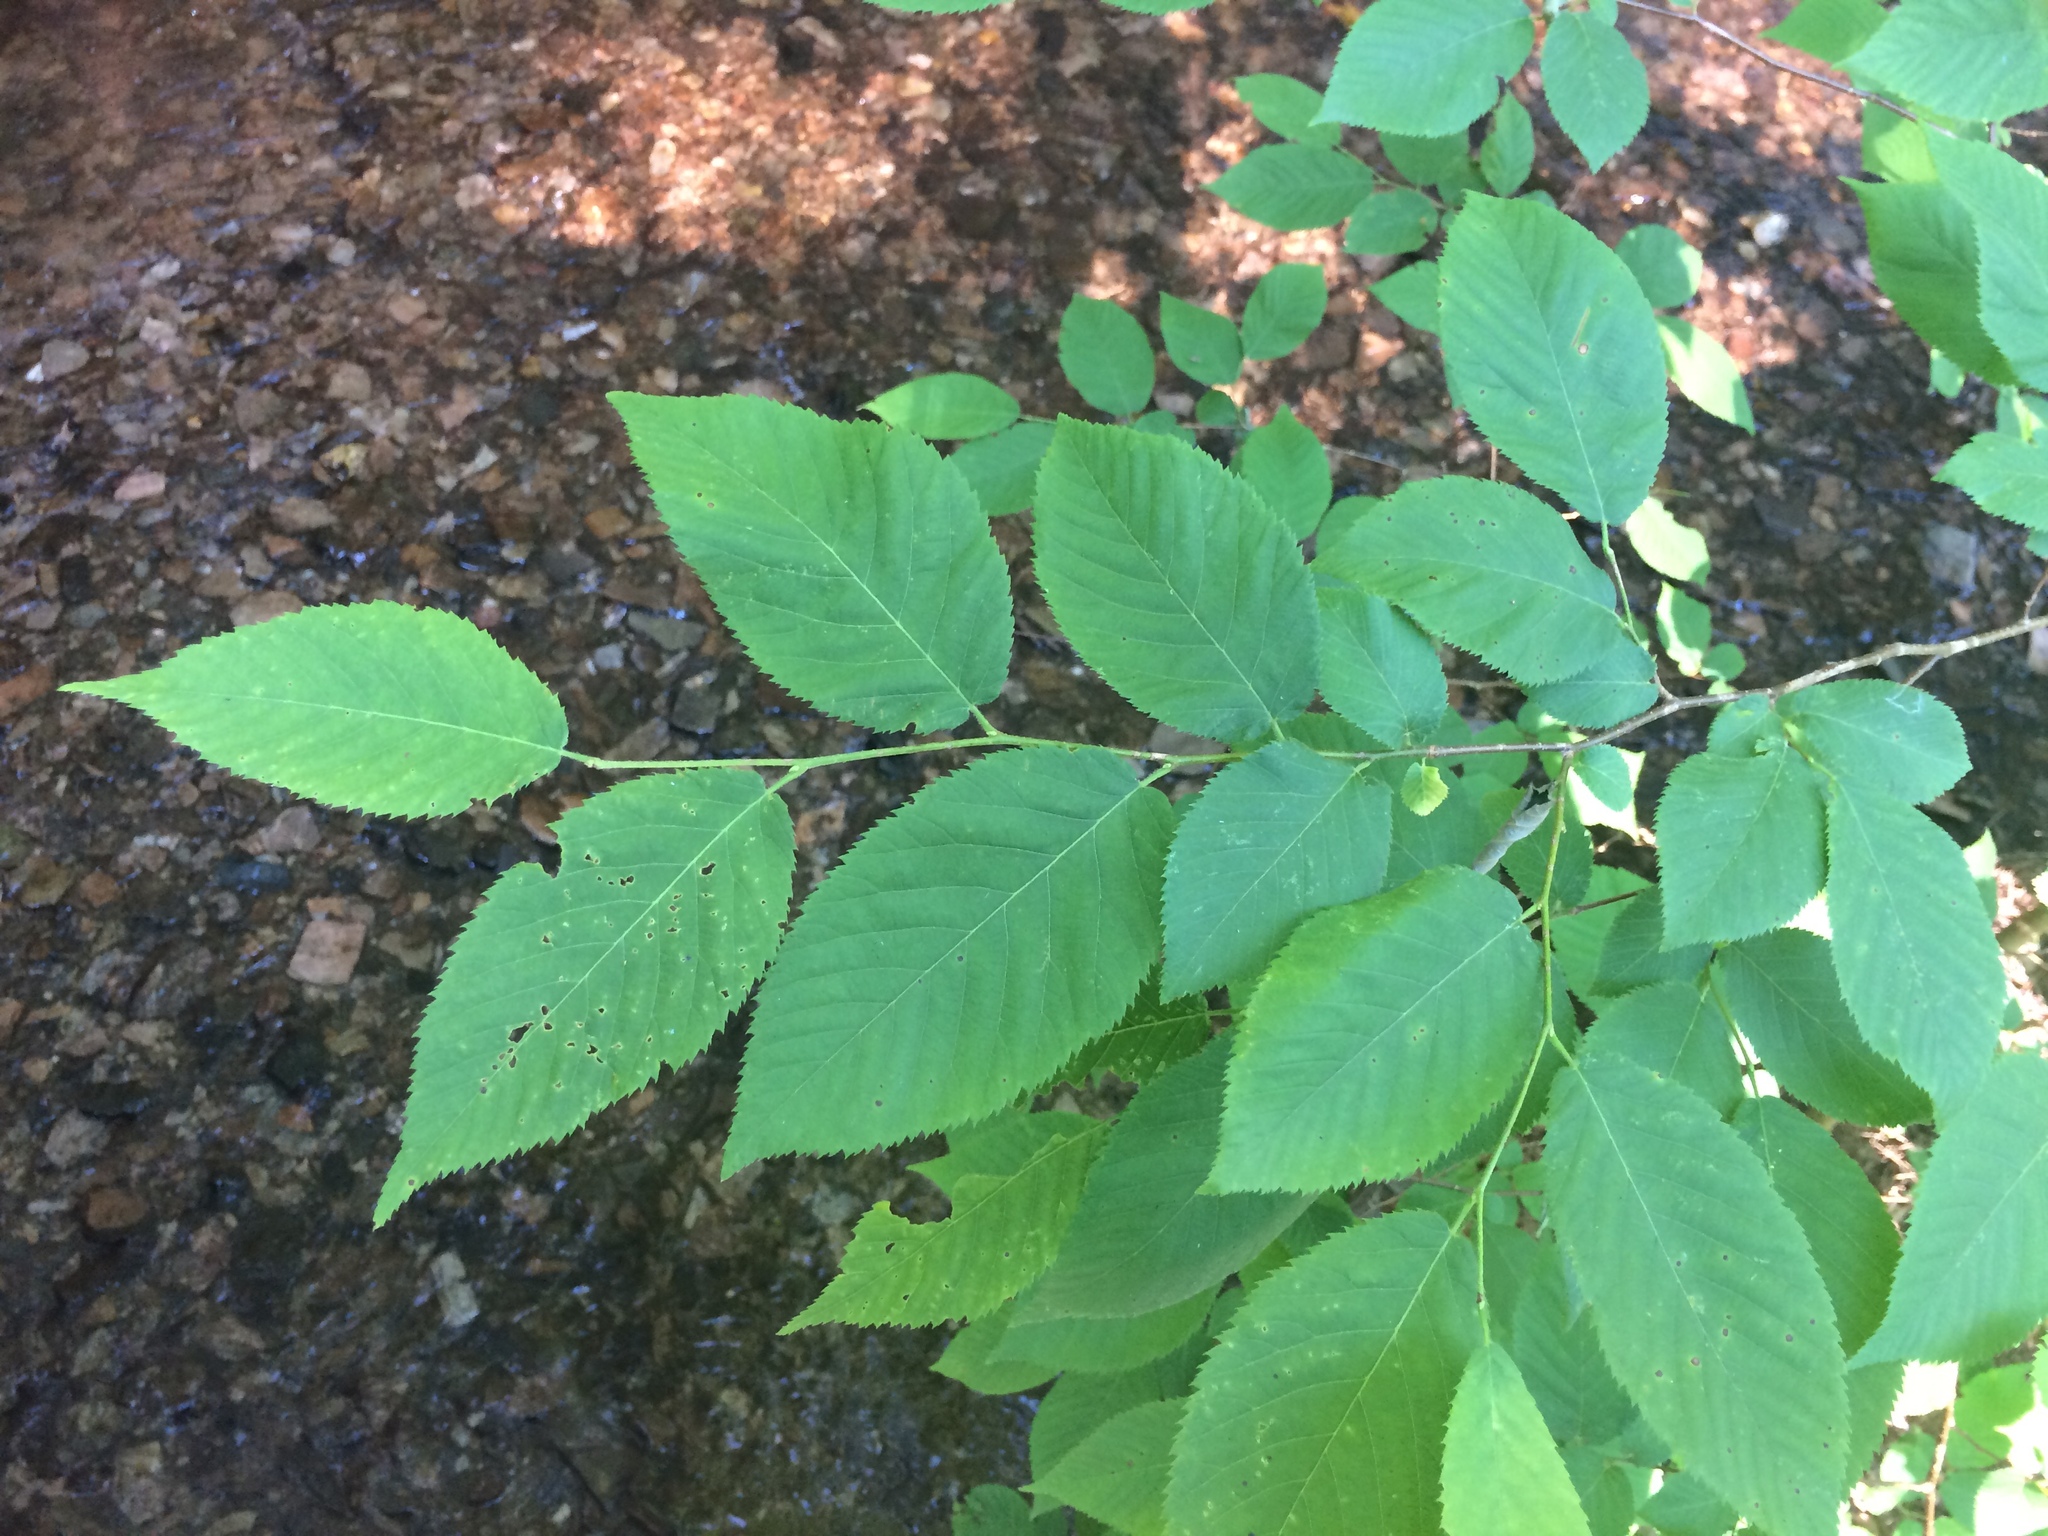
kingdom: Plantae
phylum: Tracheophyta
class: Magnoliopsida
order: Fagales
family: Betulaceae
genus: Betula
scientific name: Betula alleghaniensis
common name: Yellow birch
